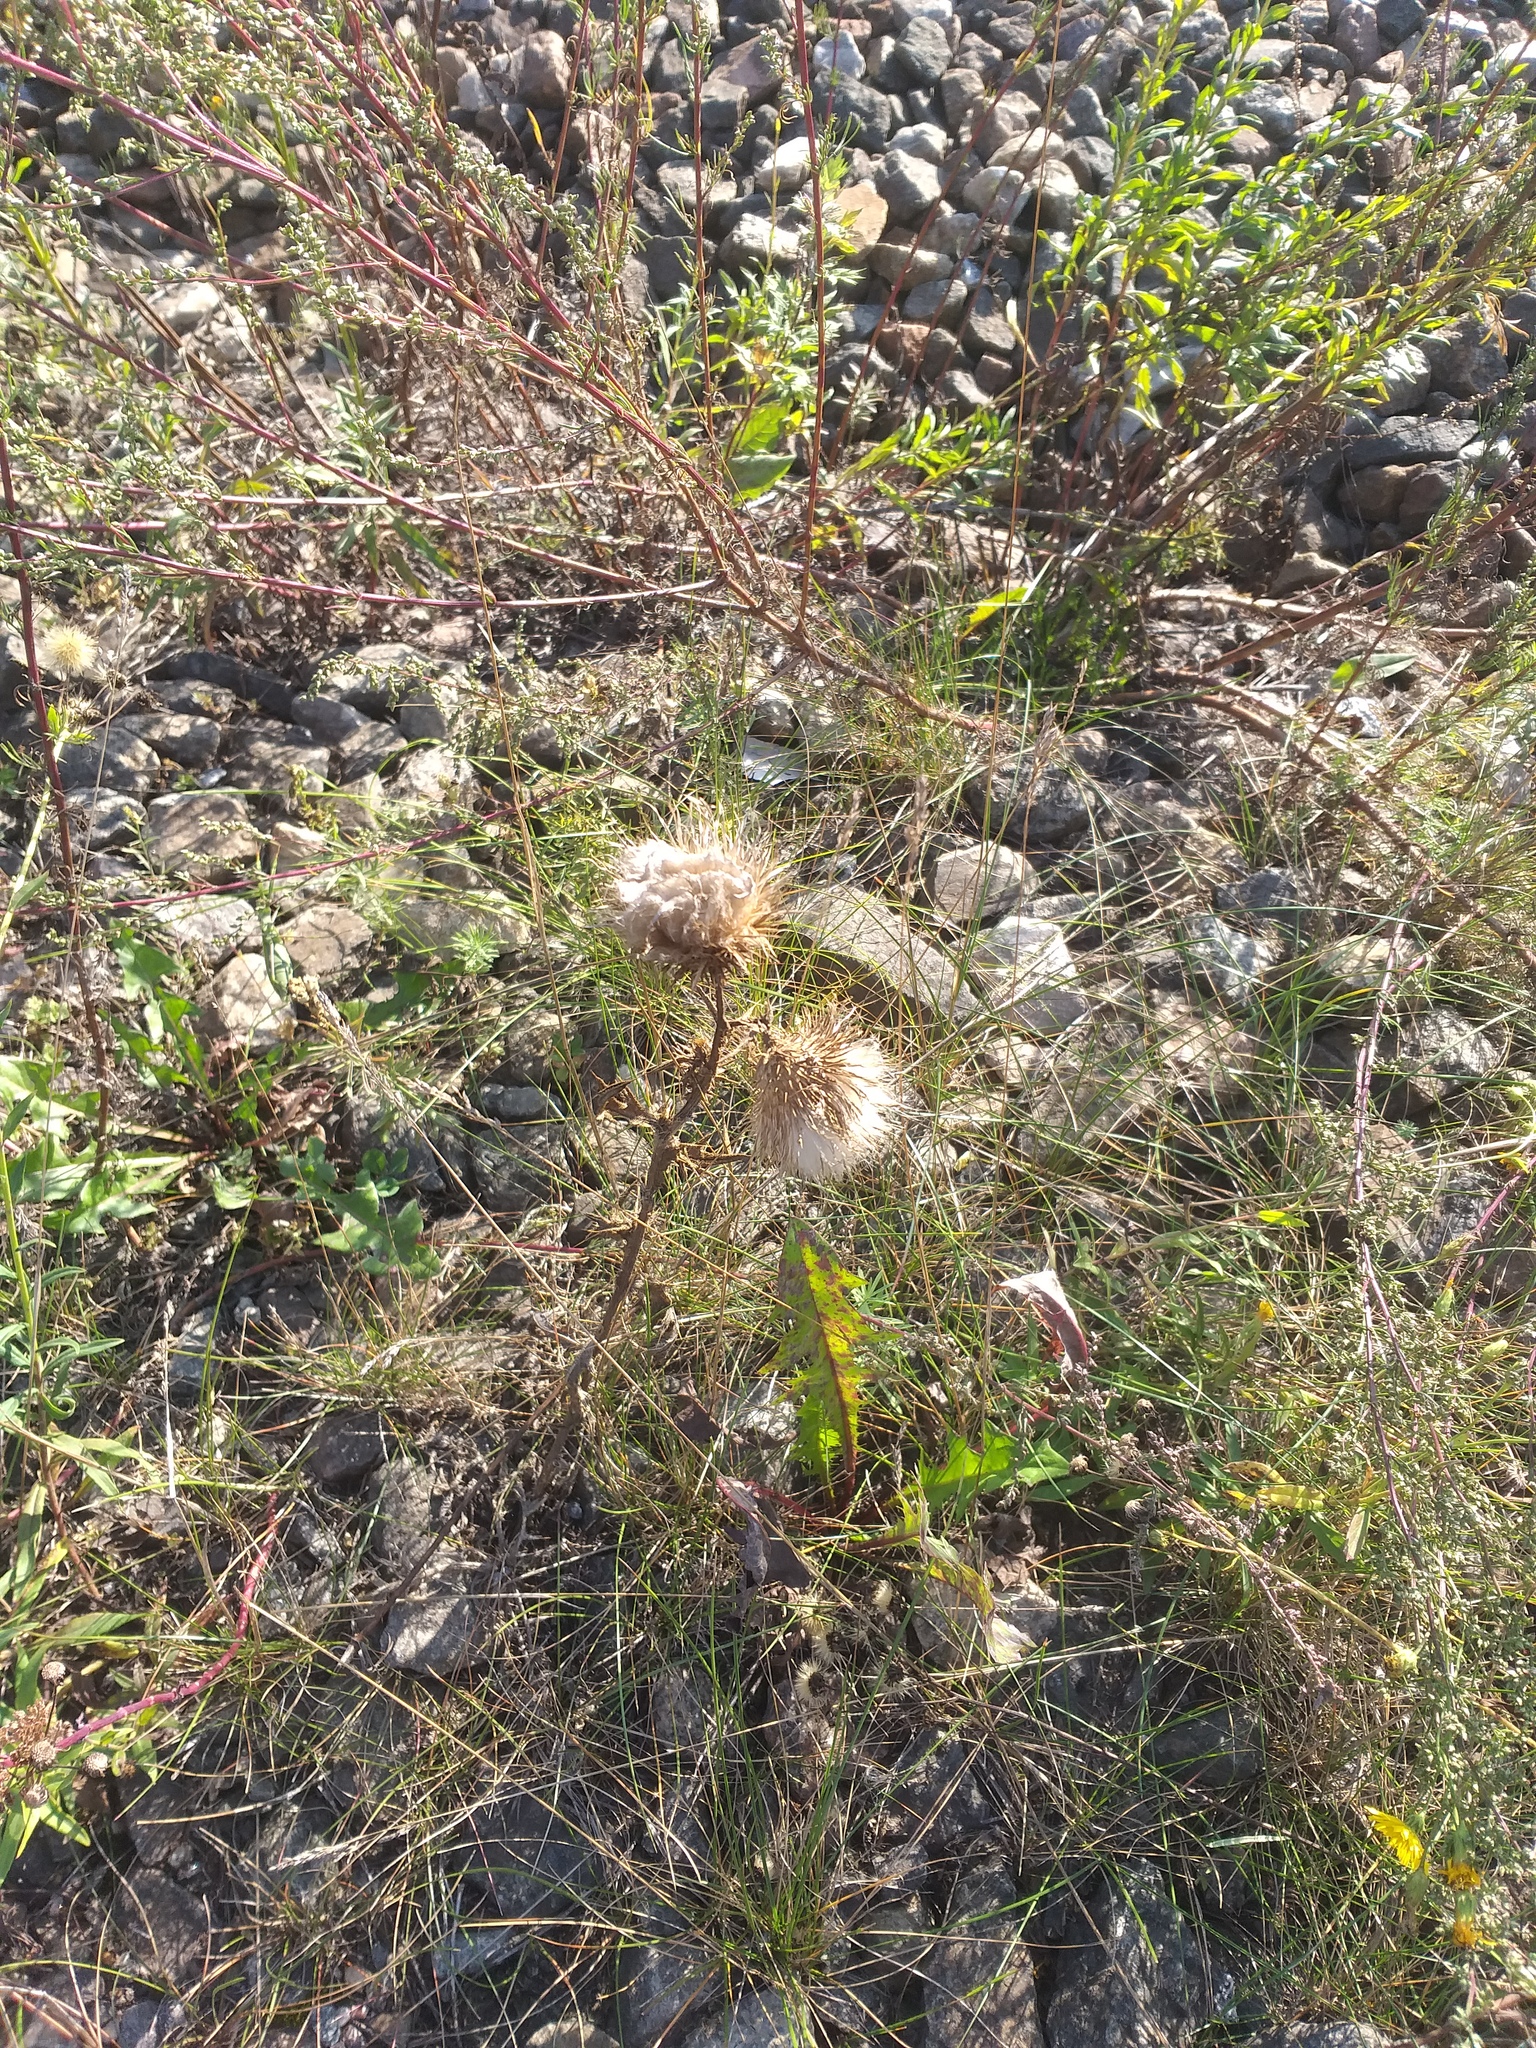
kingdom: Plantae
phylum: Tracheophyta
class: Magnoliopsida
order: Asterales
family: Asteraceae
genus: Cirsium
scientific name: Cirsium vulgare
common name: Bull thistle
